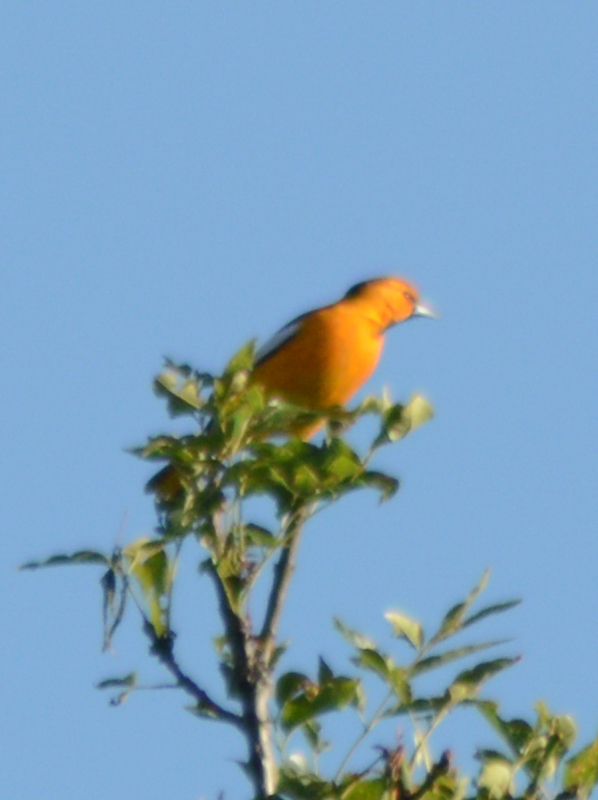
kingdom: Animalia
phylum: Chordata
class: Aves
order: Passeriformes
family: Icteridae
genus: Icterus
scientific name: Icterus bullockii
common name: Bullock's oriole
